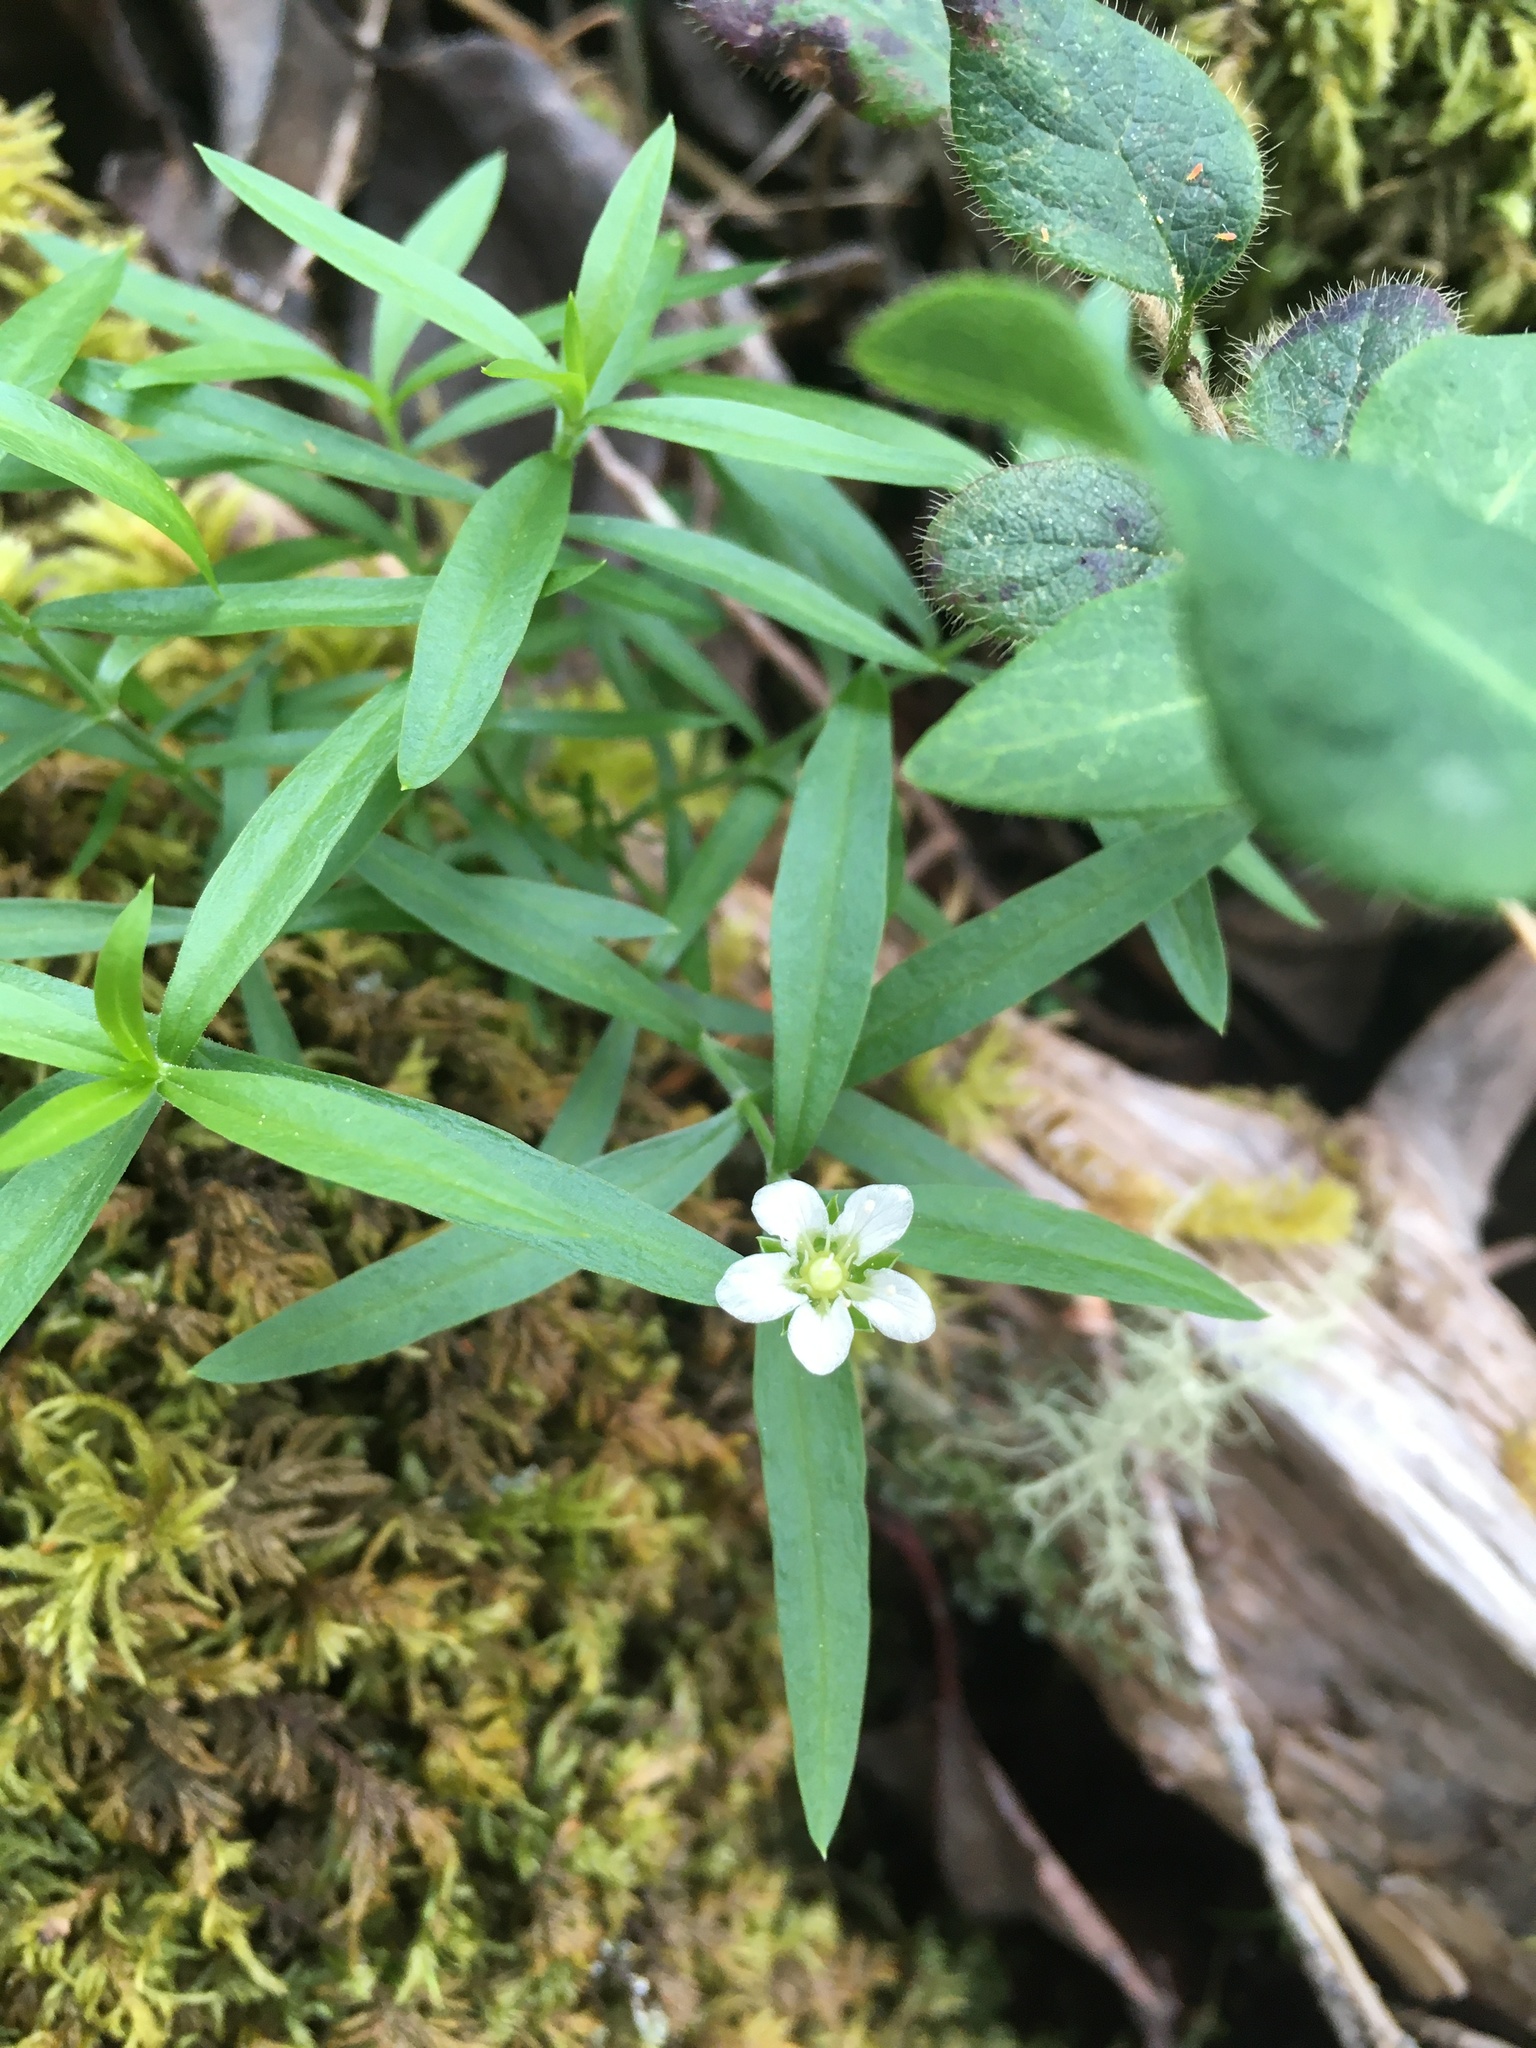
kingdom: Plantae
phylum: Tracheophyta
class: Magnoliopsida
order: Caryophyllales
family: Caryophyllaceae
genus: Moehringia
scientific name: Moehringia macrophylla
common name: Big-leaf sandwort
